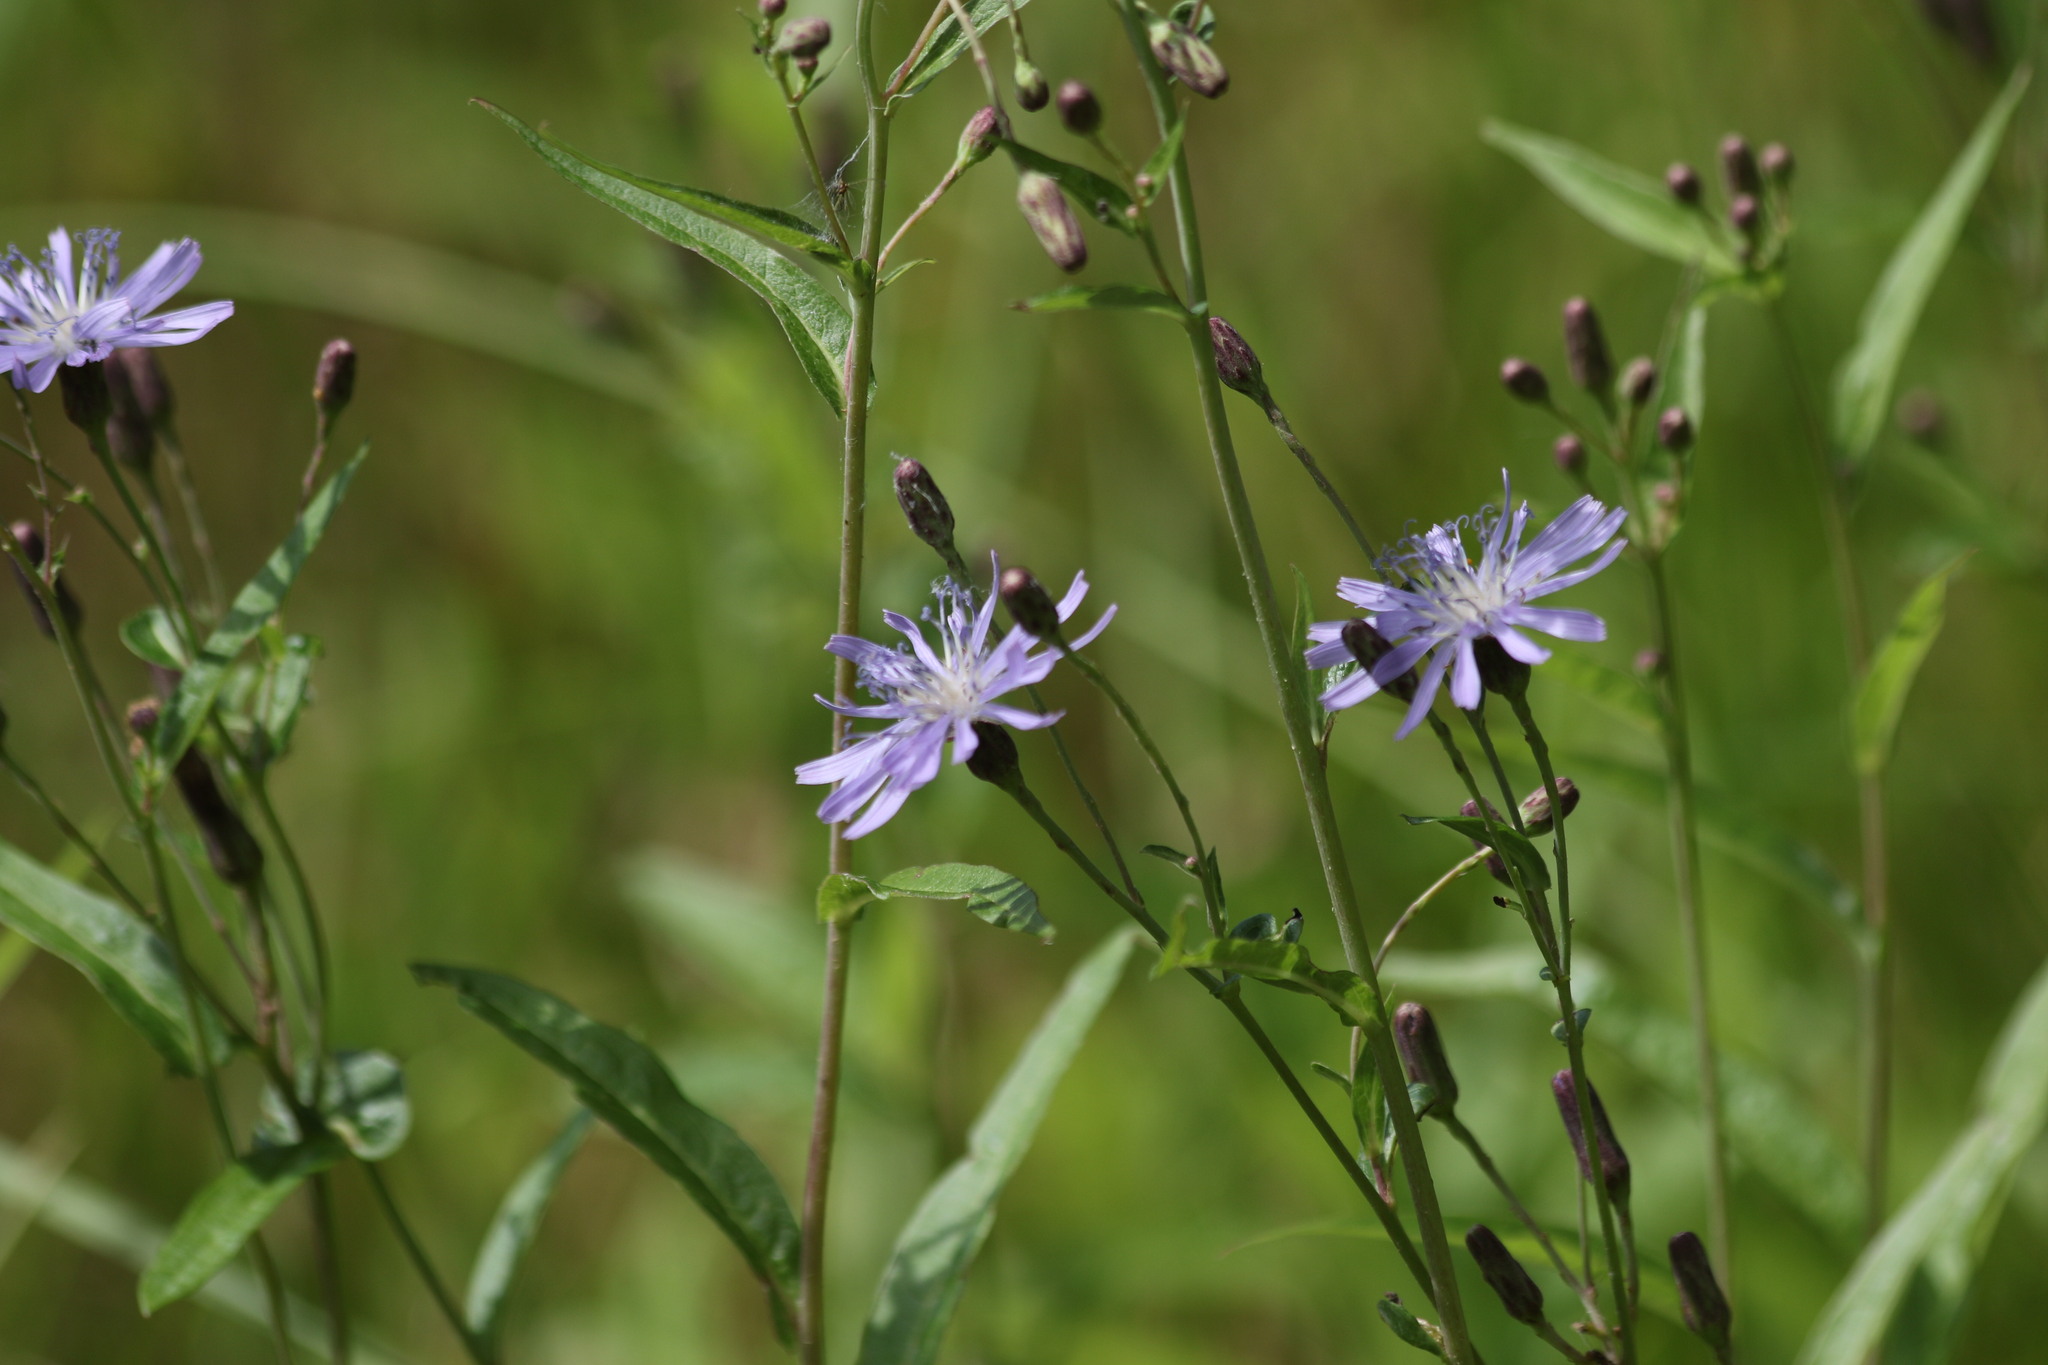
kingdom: Plantae
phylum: Tracheophyta
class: Magnoliopsida
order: Asterales
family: Asteraceae
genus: Lactuca
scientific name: Lactuca sibirica
